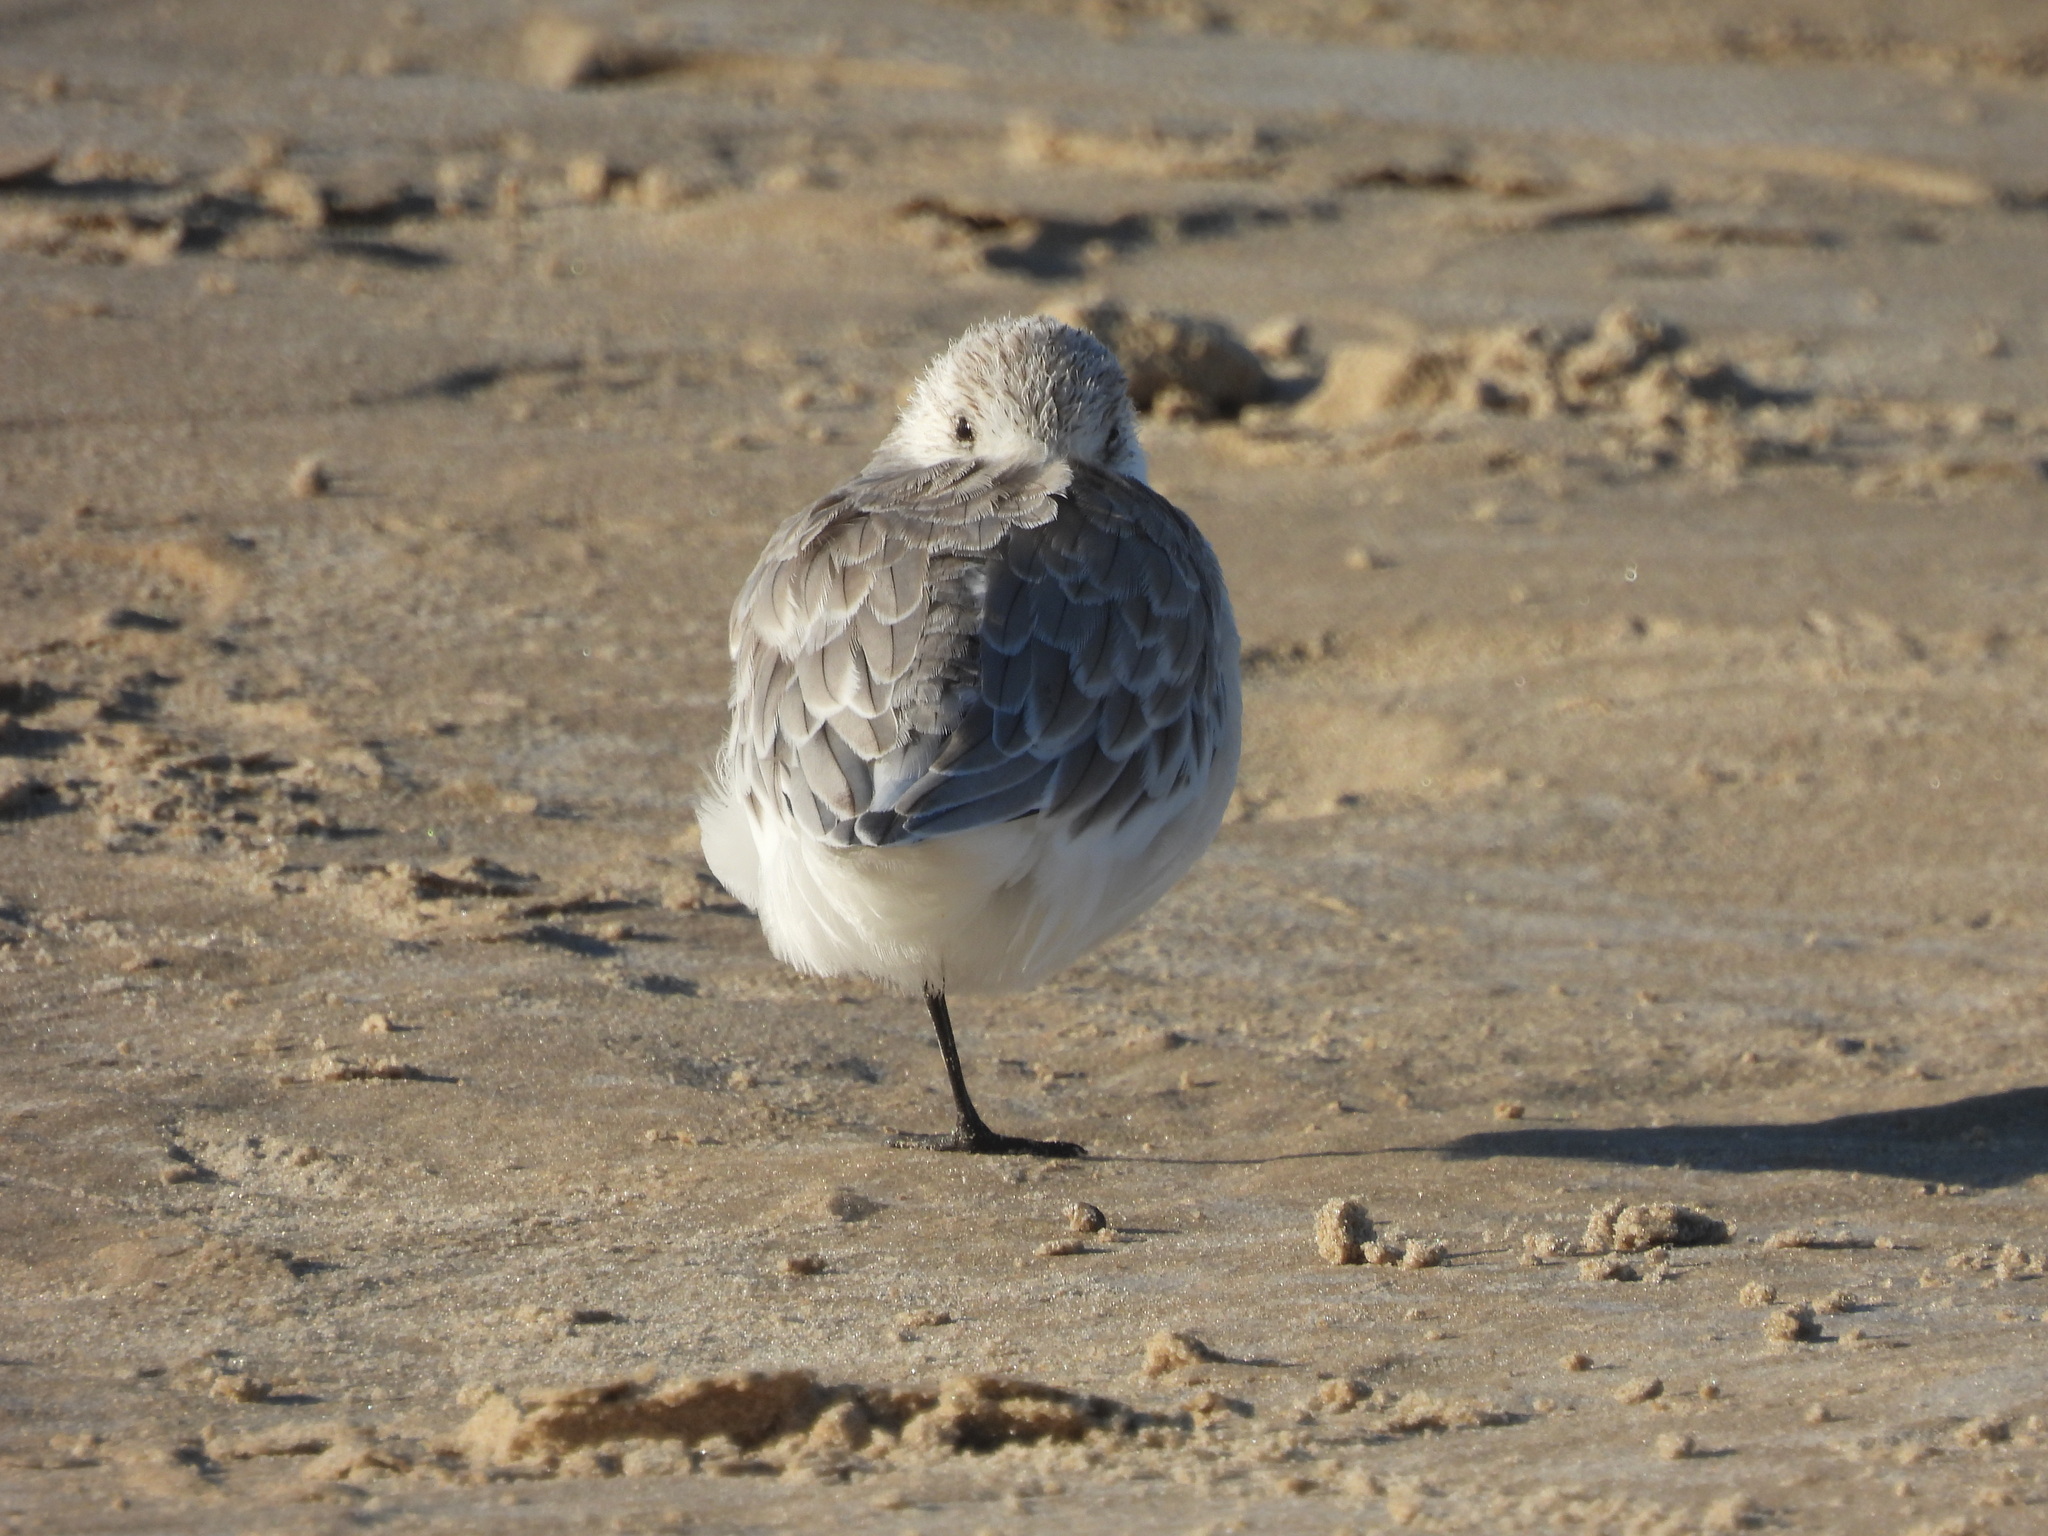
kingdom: Animalia
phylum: Chordata
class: Aves
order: Charadriiformes
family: Scolopacidae
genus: Calidris
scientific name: Calidris alba
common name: Sanderling
